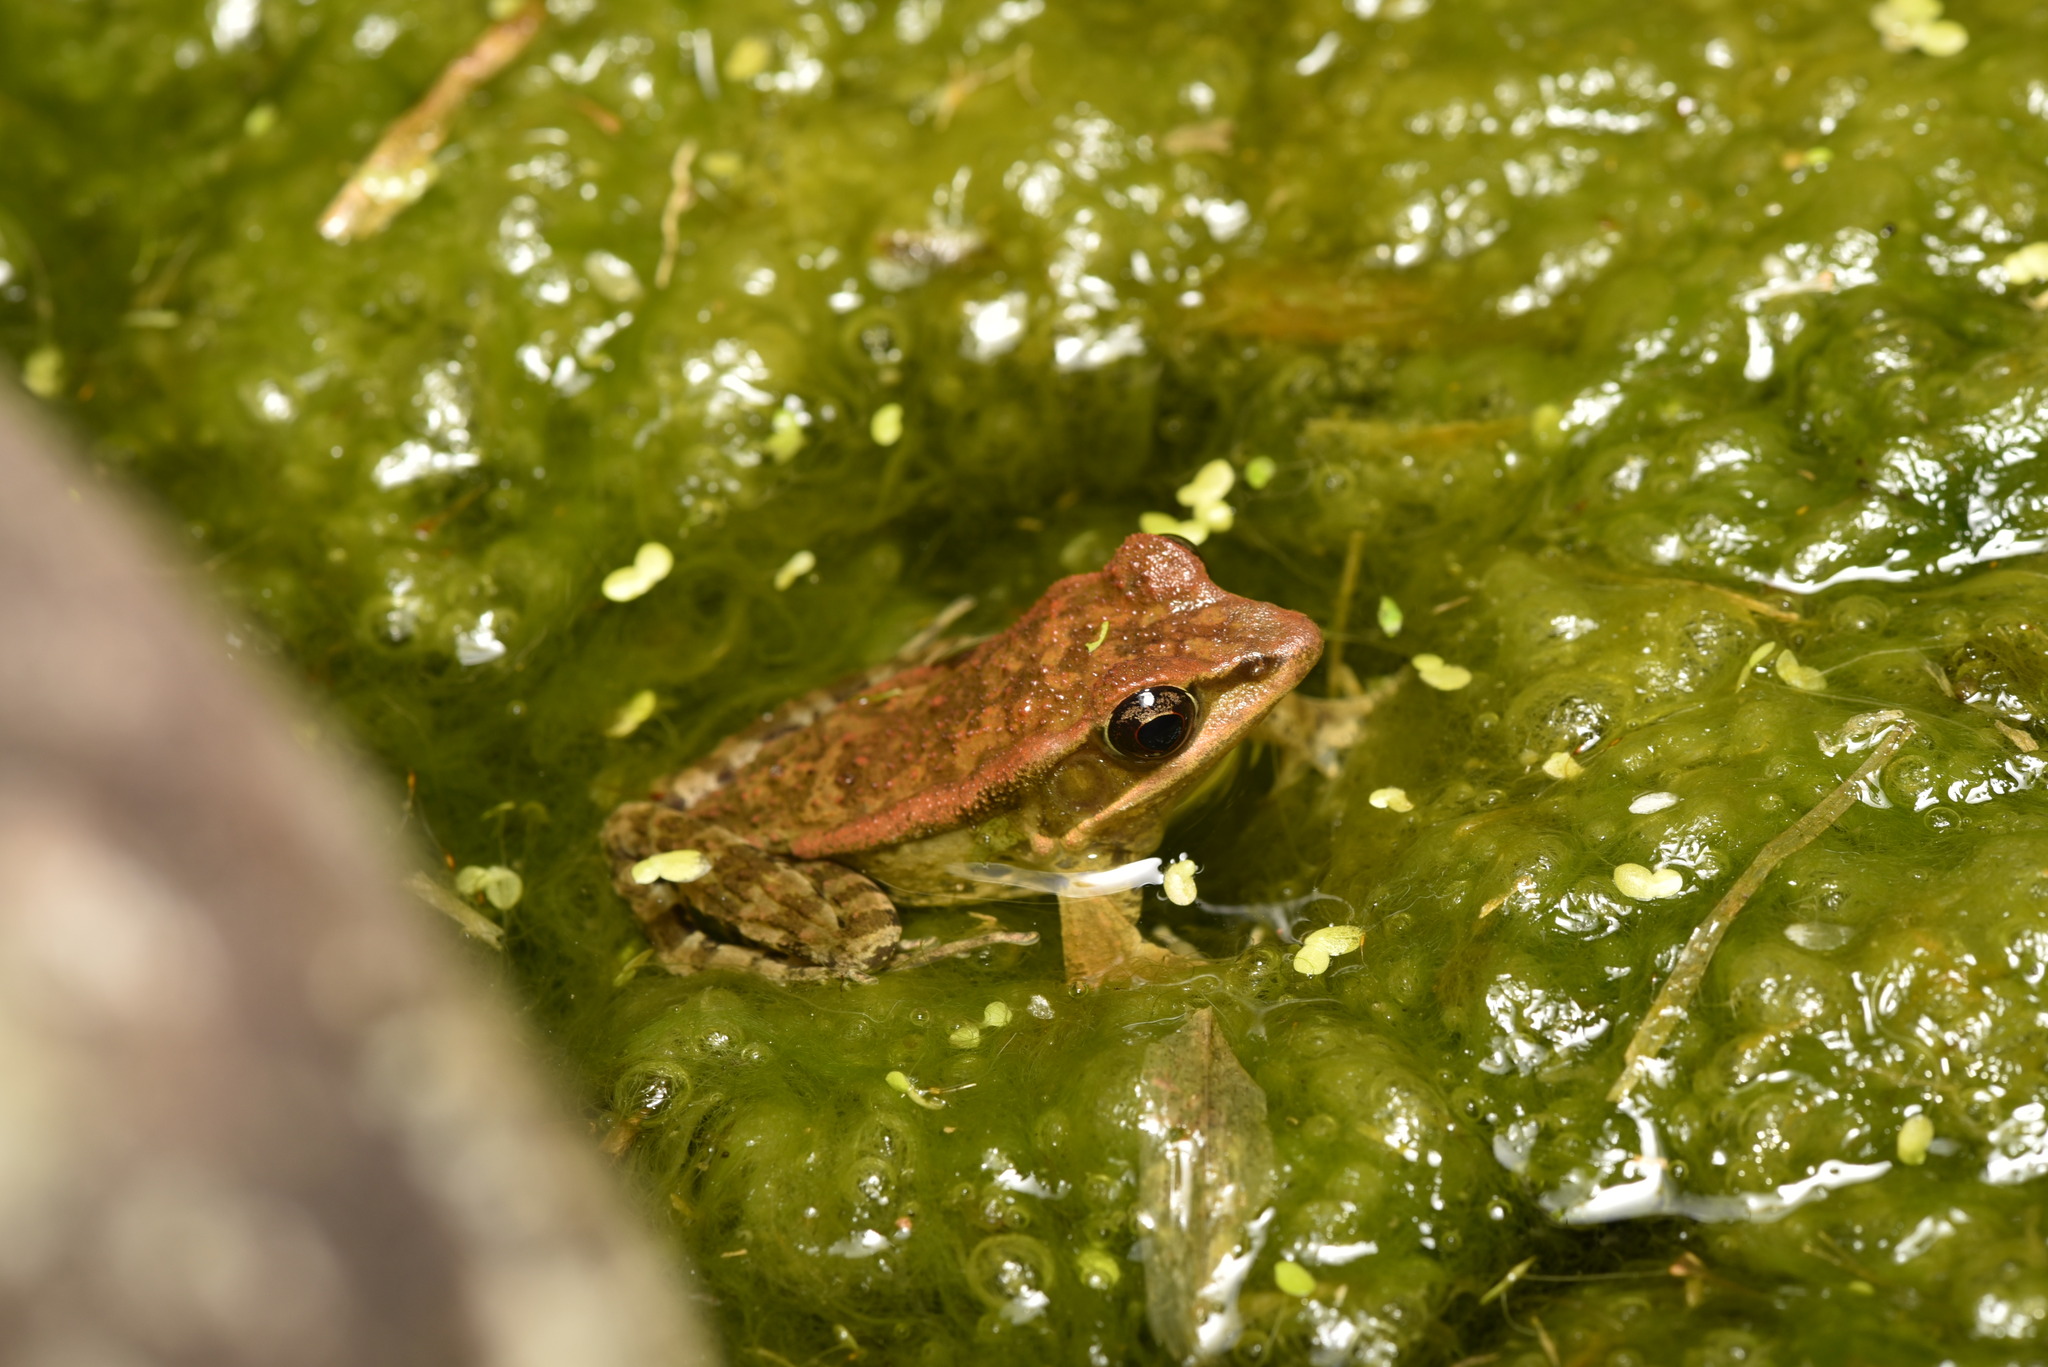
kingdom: Animalia
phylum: Chordata
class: Amphibia
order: Anura
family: Ranidae
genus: Hylarana
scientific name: Hylarana latouchii
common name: Broad-folded frog
